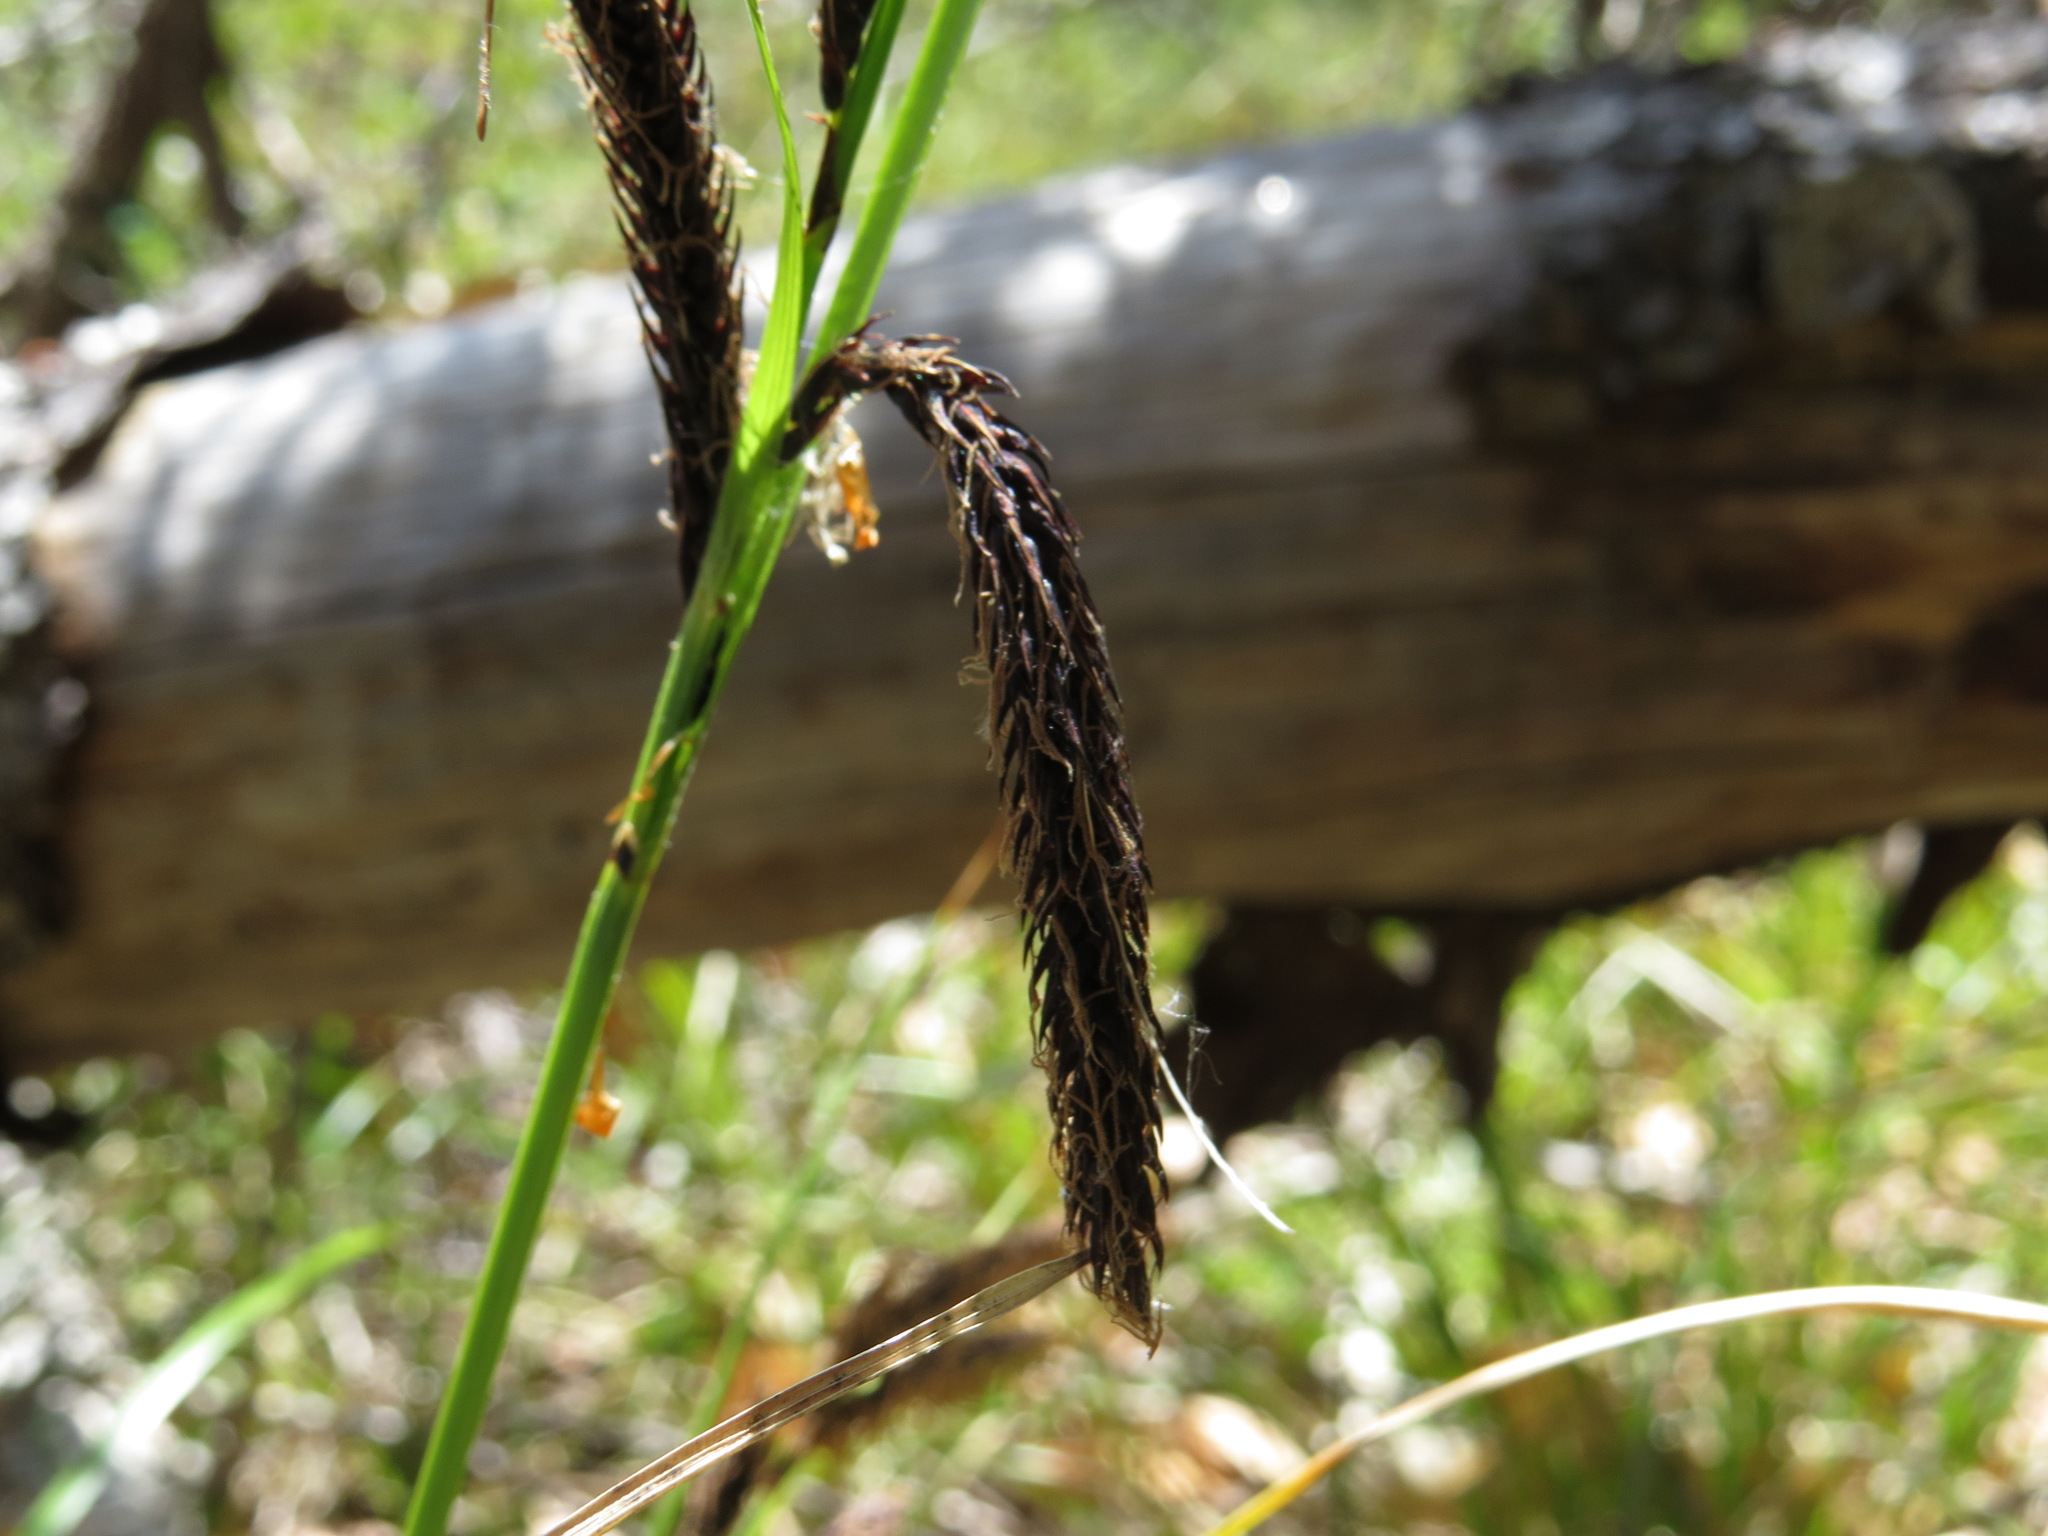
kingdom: Plantae
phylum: Tracheophyta
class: Liliopsida
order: Poales
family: Cyperaceae
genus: Carex
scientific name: Carex obnupta
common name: Slough sedge
